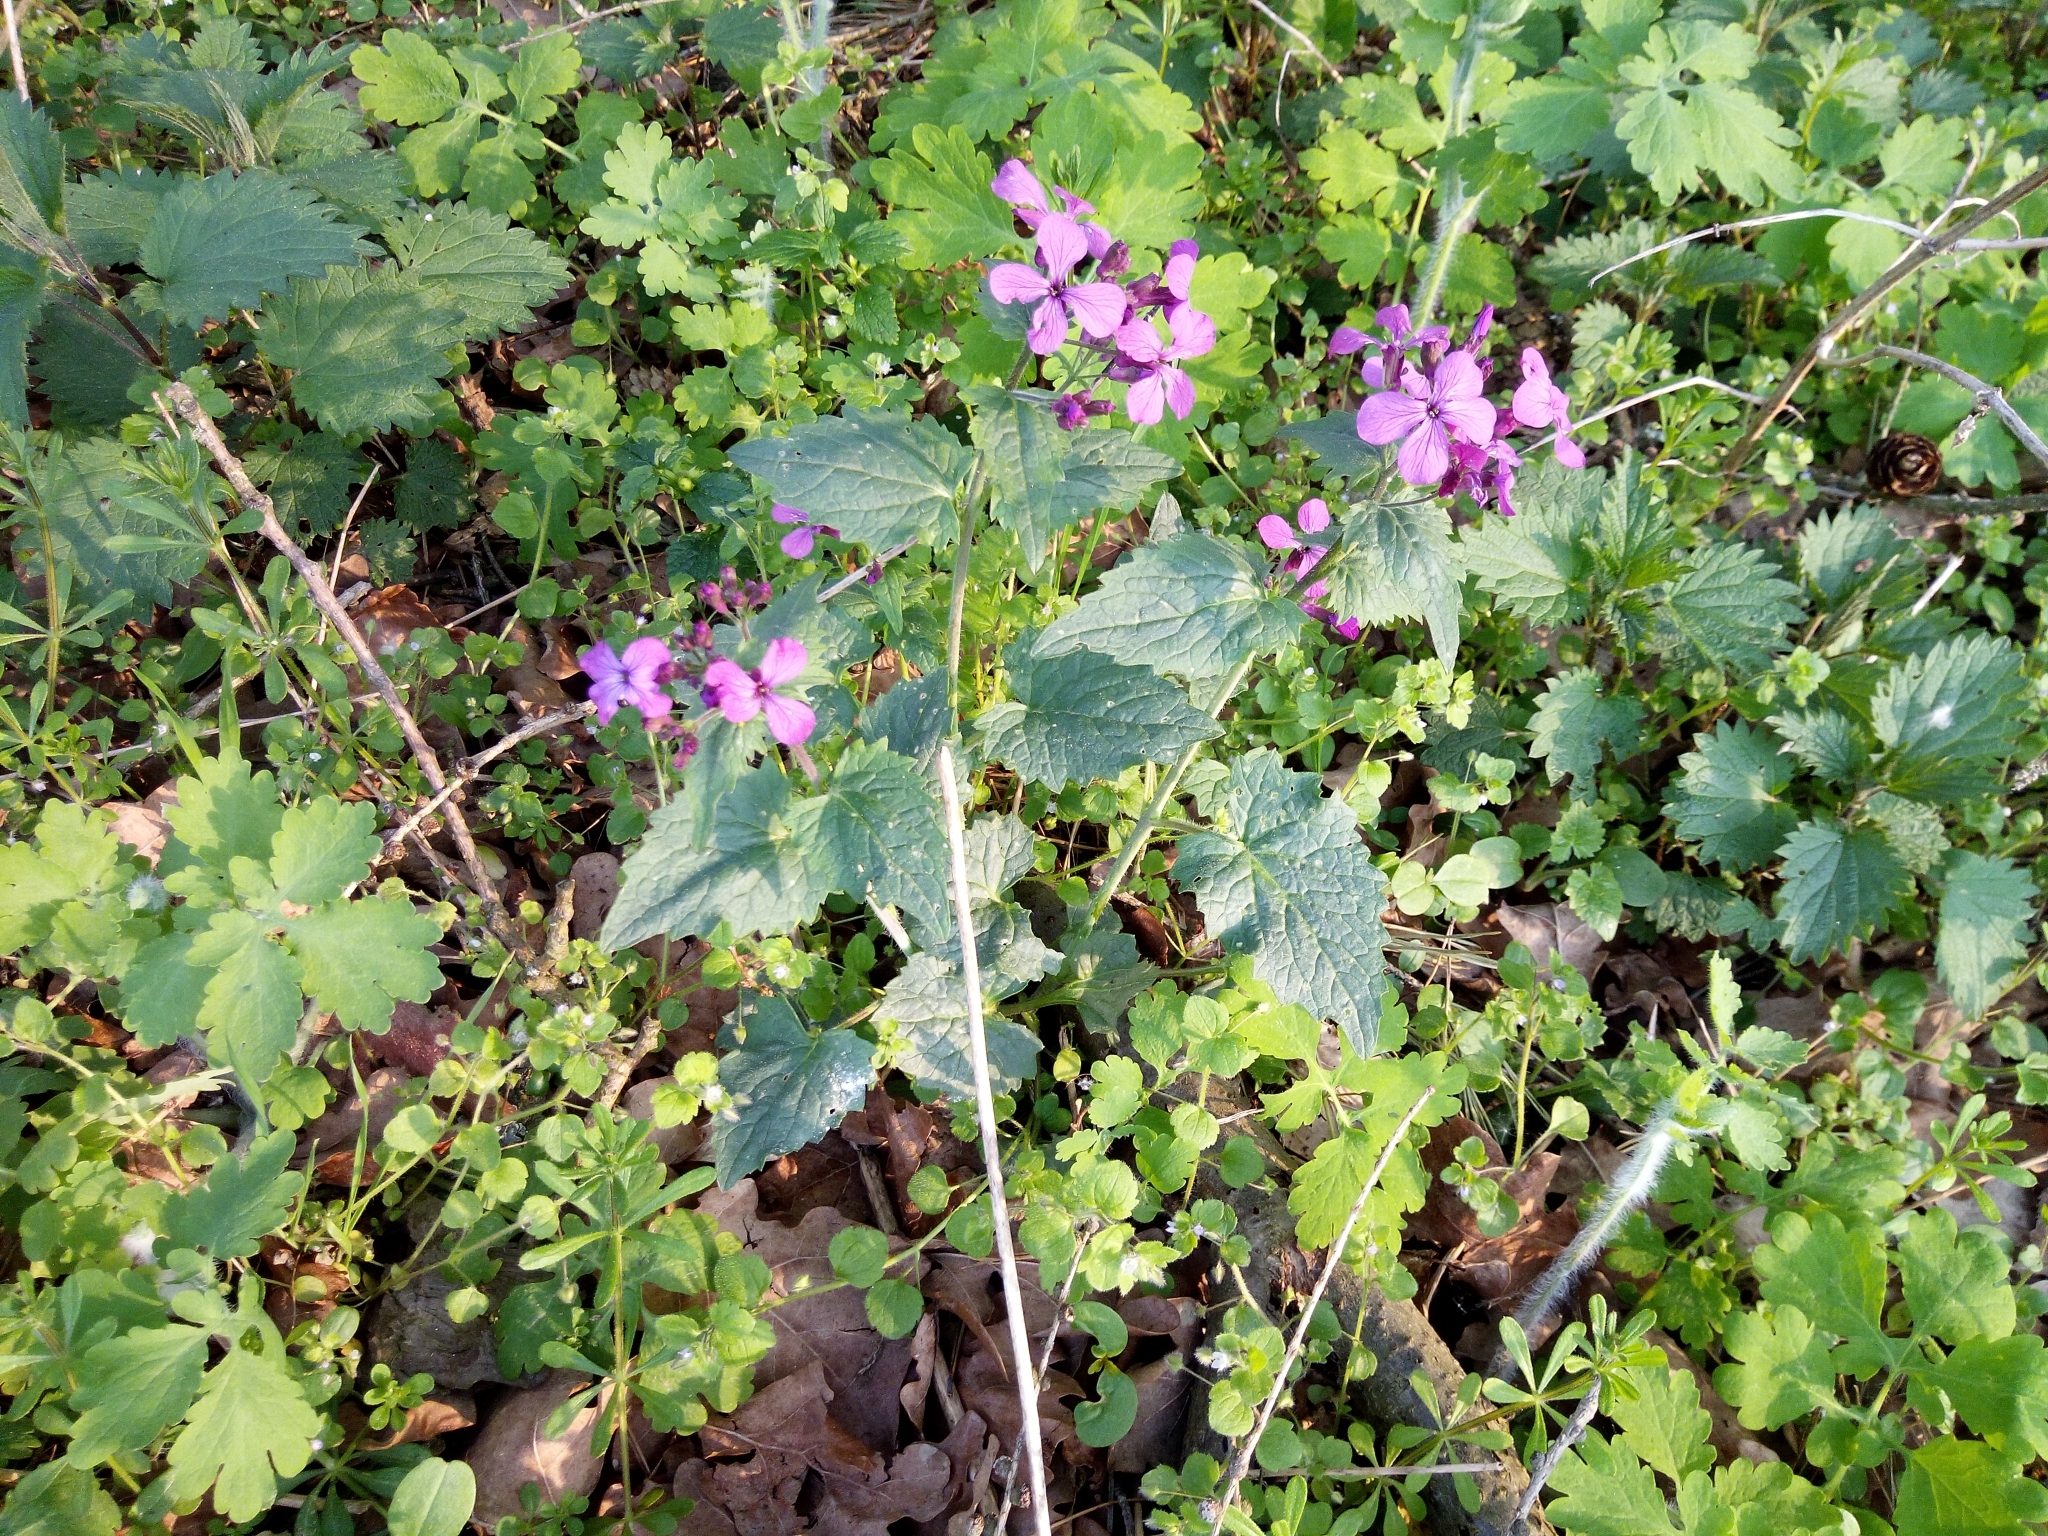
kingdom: Plantae
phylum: Tracheophyta
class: Magnoliopsida
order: Brassicales
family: Brassicaceae
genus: Lunaria
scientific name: Lunaria annua
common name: Honesty
